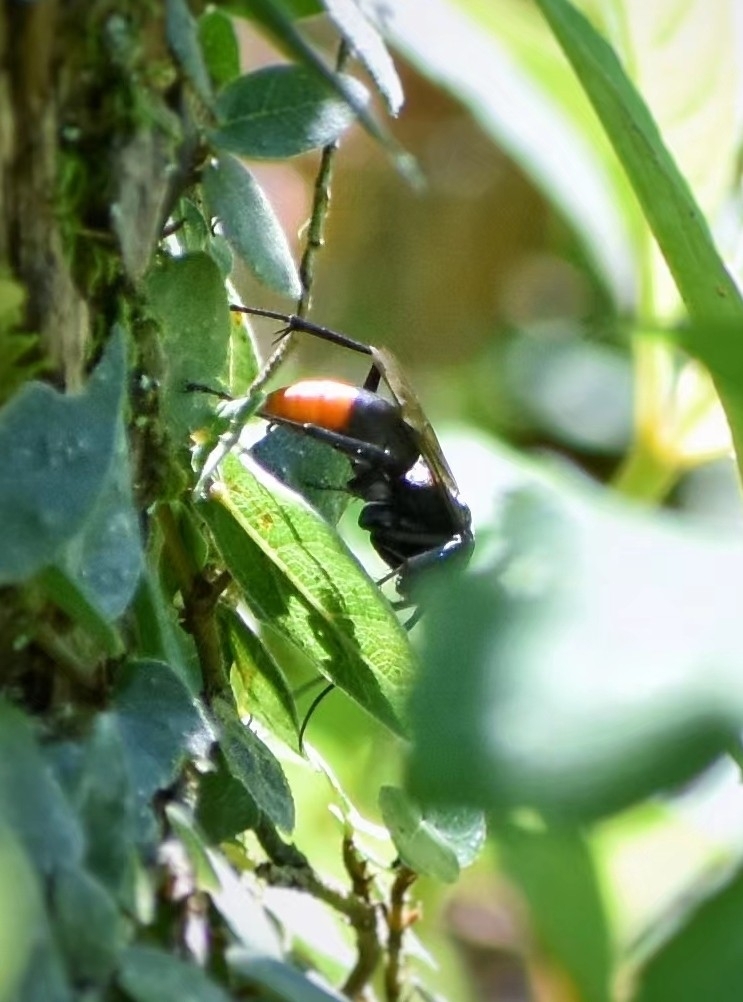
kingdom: Animalia
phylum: Arthropoda
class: Insecta
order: Hymenoptera
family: Pompilidae
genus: Tachypompilus
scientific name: Tachypompilus analis
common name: Spider wasp
